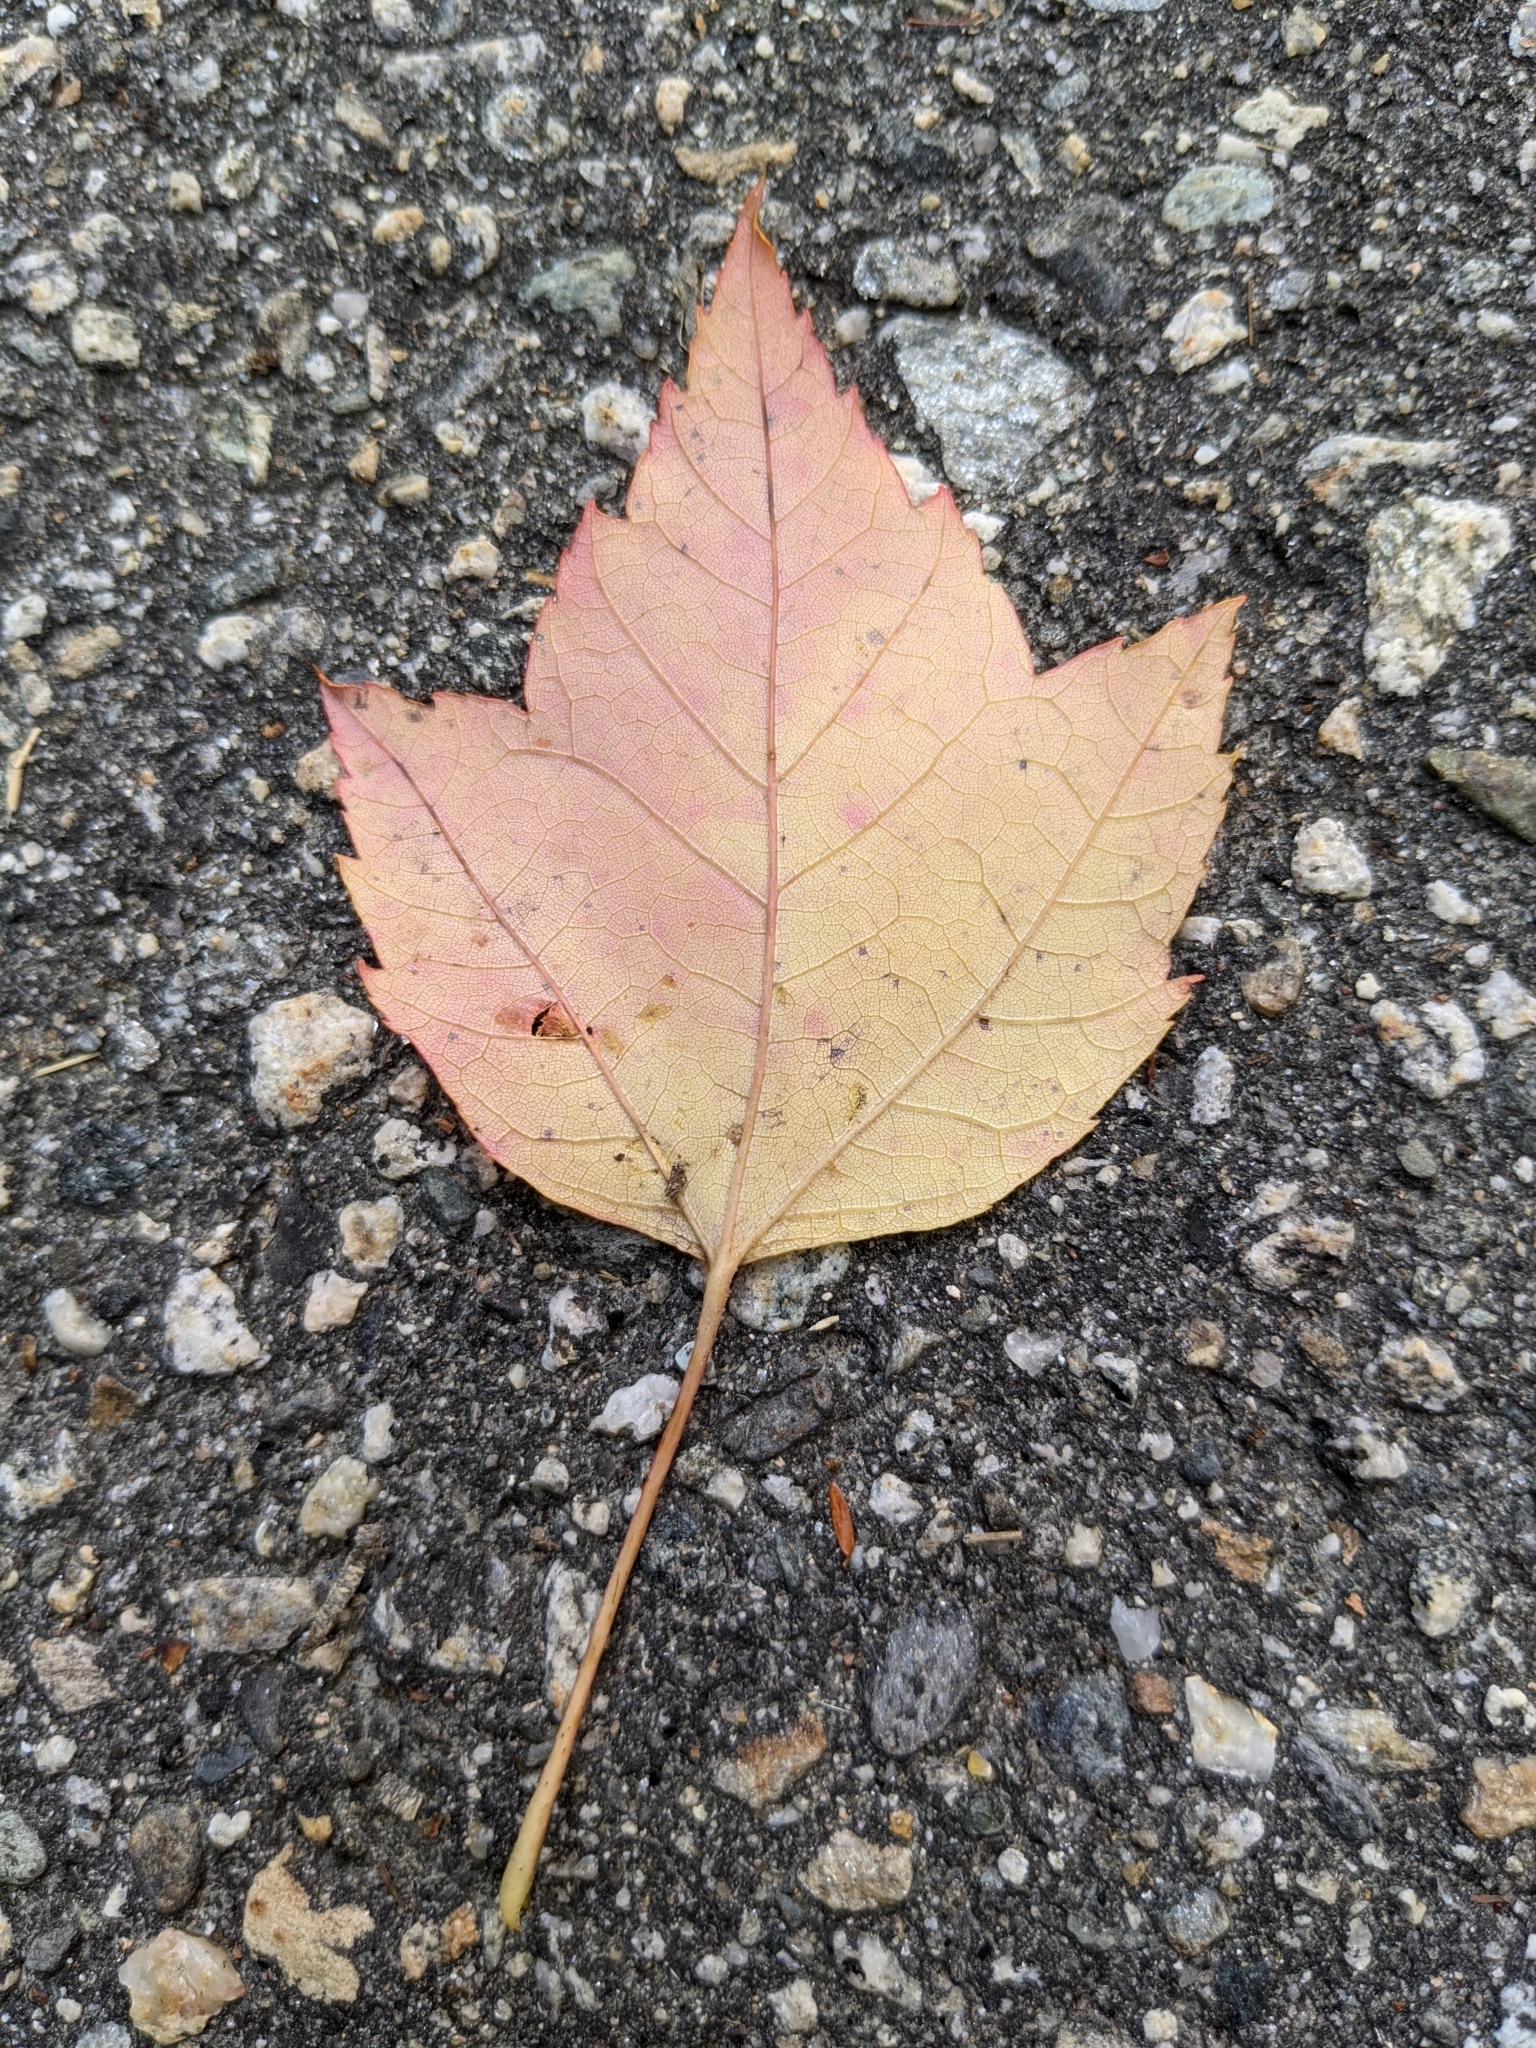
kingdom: Plantae
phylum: Tracheophyta
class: Magnoliopsida
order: Sapindales
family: Sapindaceae
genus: Acer
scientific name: Acer rubrum
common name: Red maple
